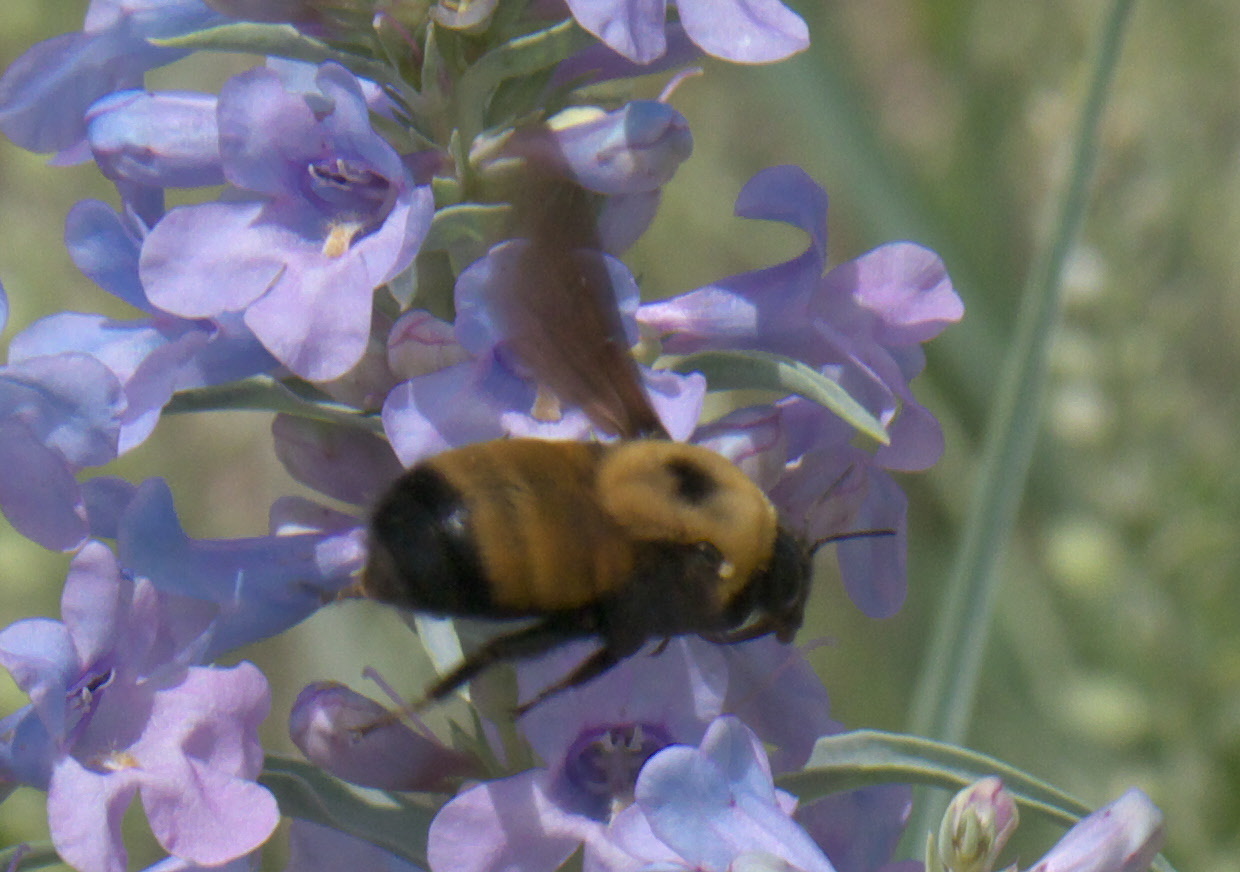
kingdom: Animalia
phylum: Arthropoda
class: Insecta
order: Hymenoptera
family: Apidae
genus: Bombus
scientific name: Bombus nevadensis
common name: Nevada bumble bee
